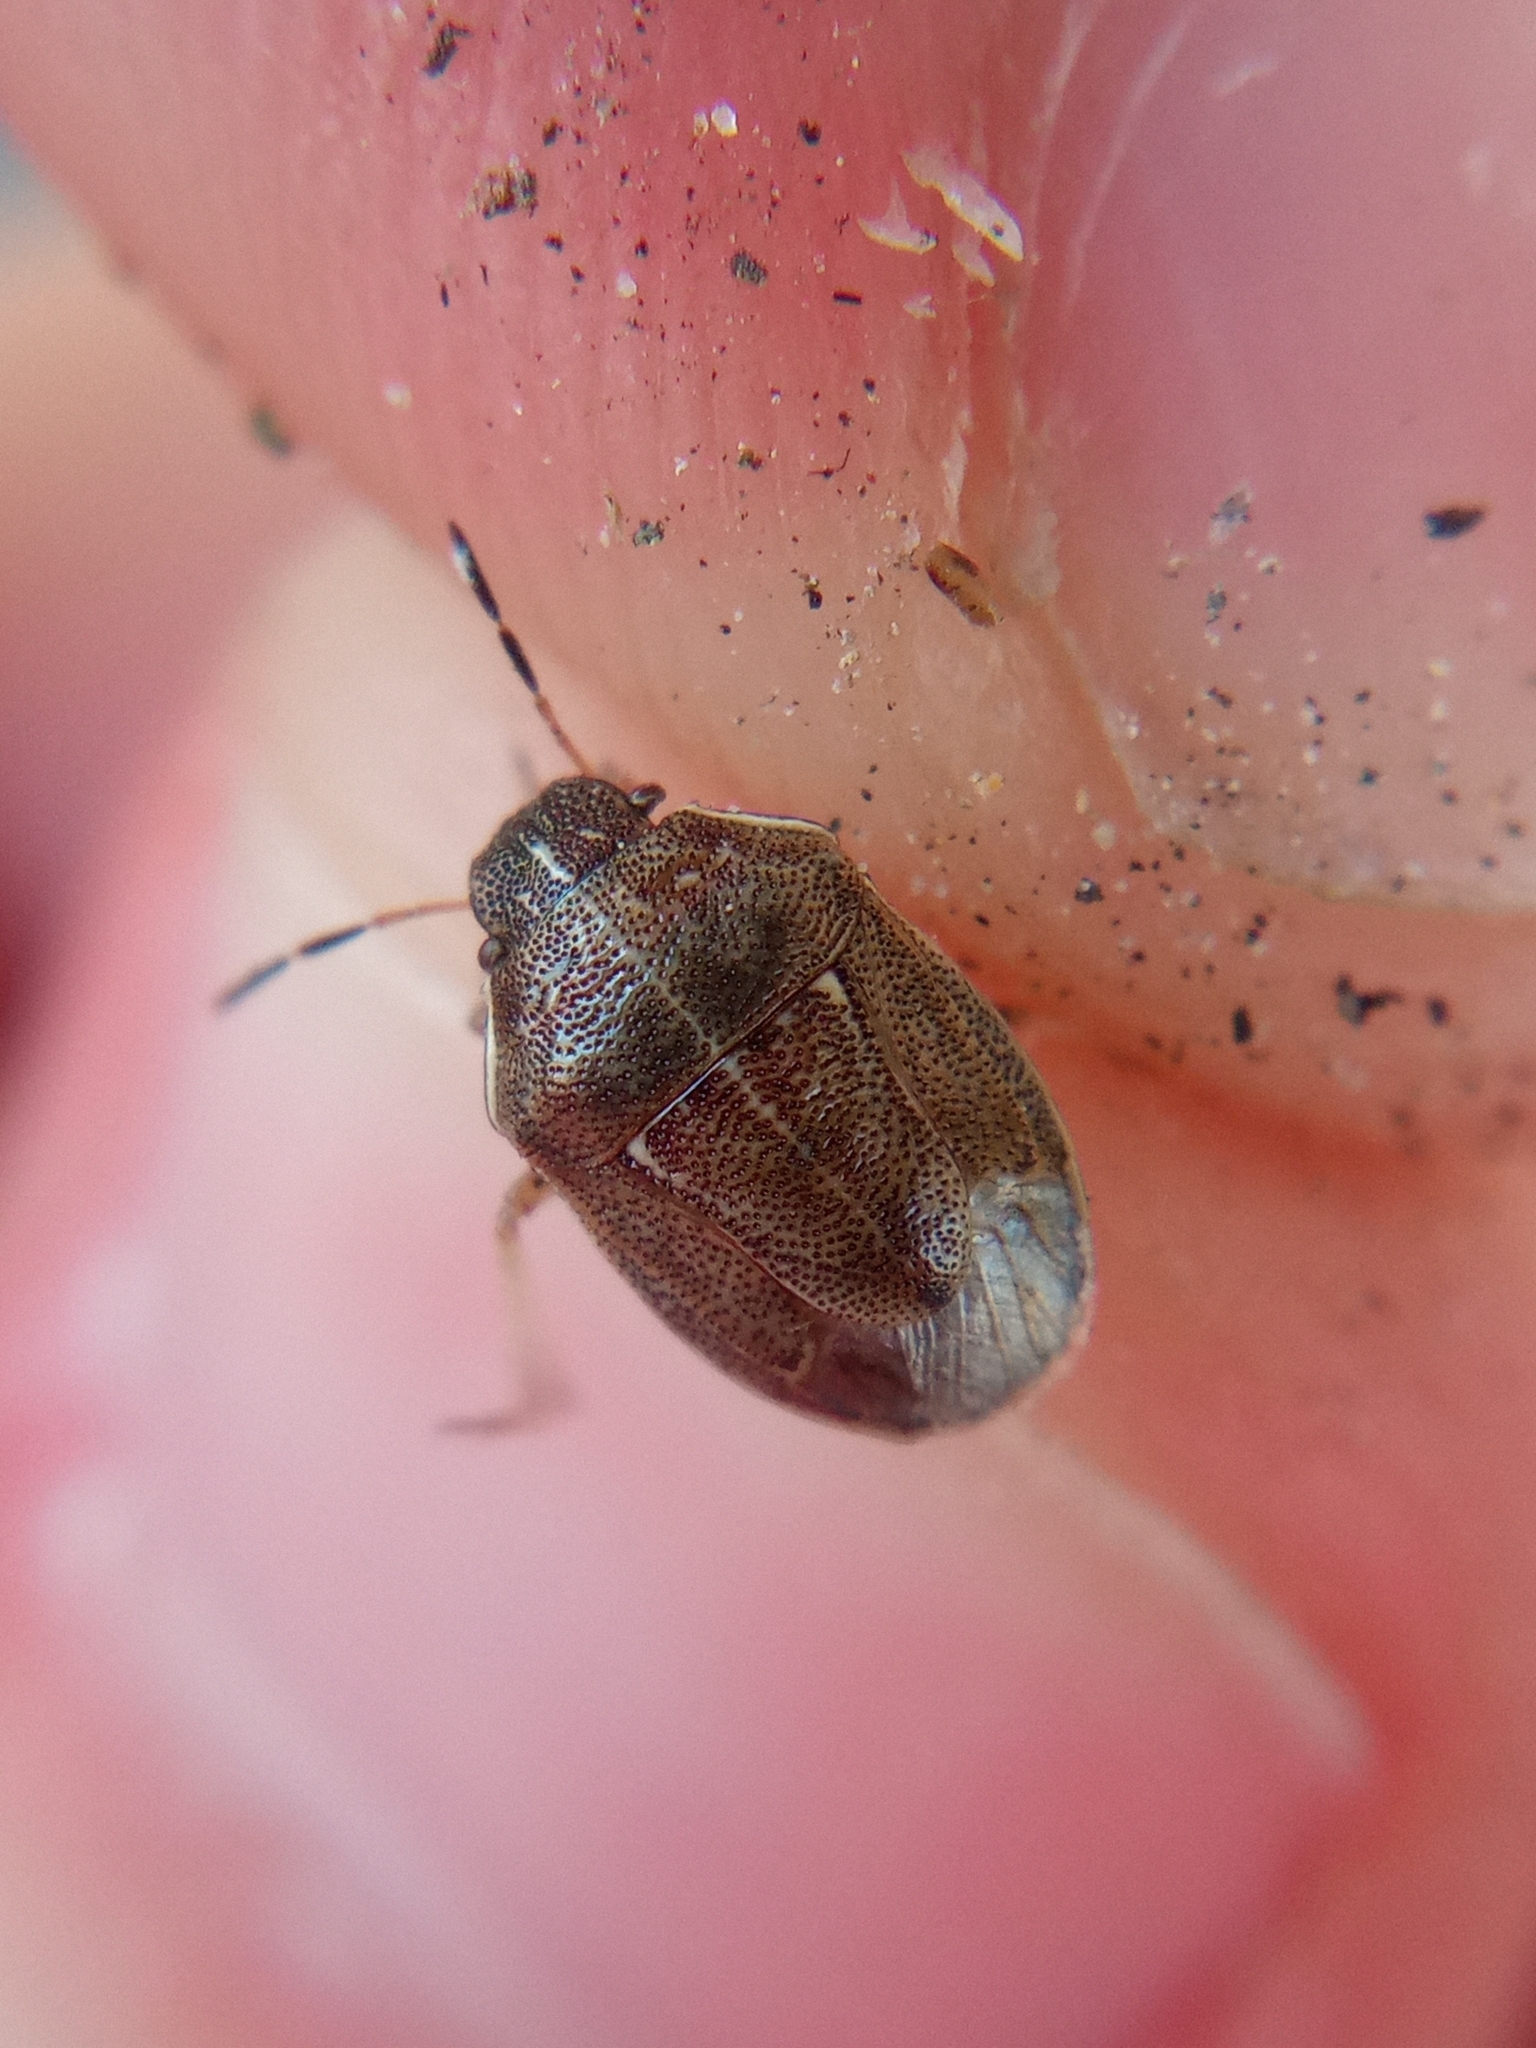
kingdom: Animalia
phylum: Arthropoda
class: Insecta
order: Hemiptera
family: Pentatomidae
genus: Neottiglossa
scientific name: Neottiglossa pusilla
